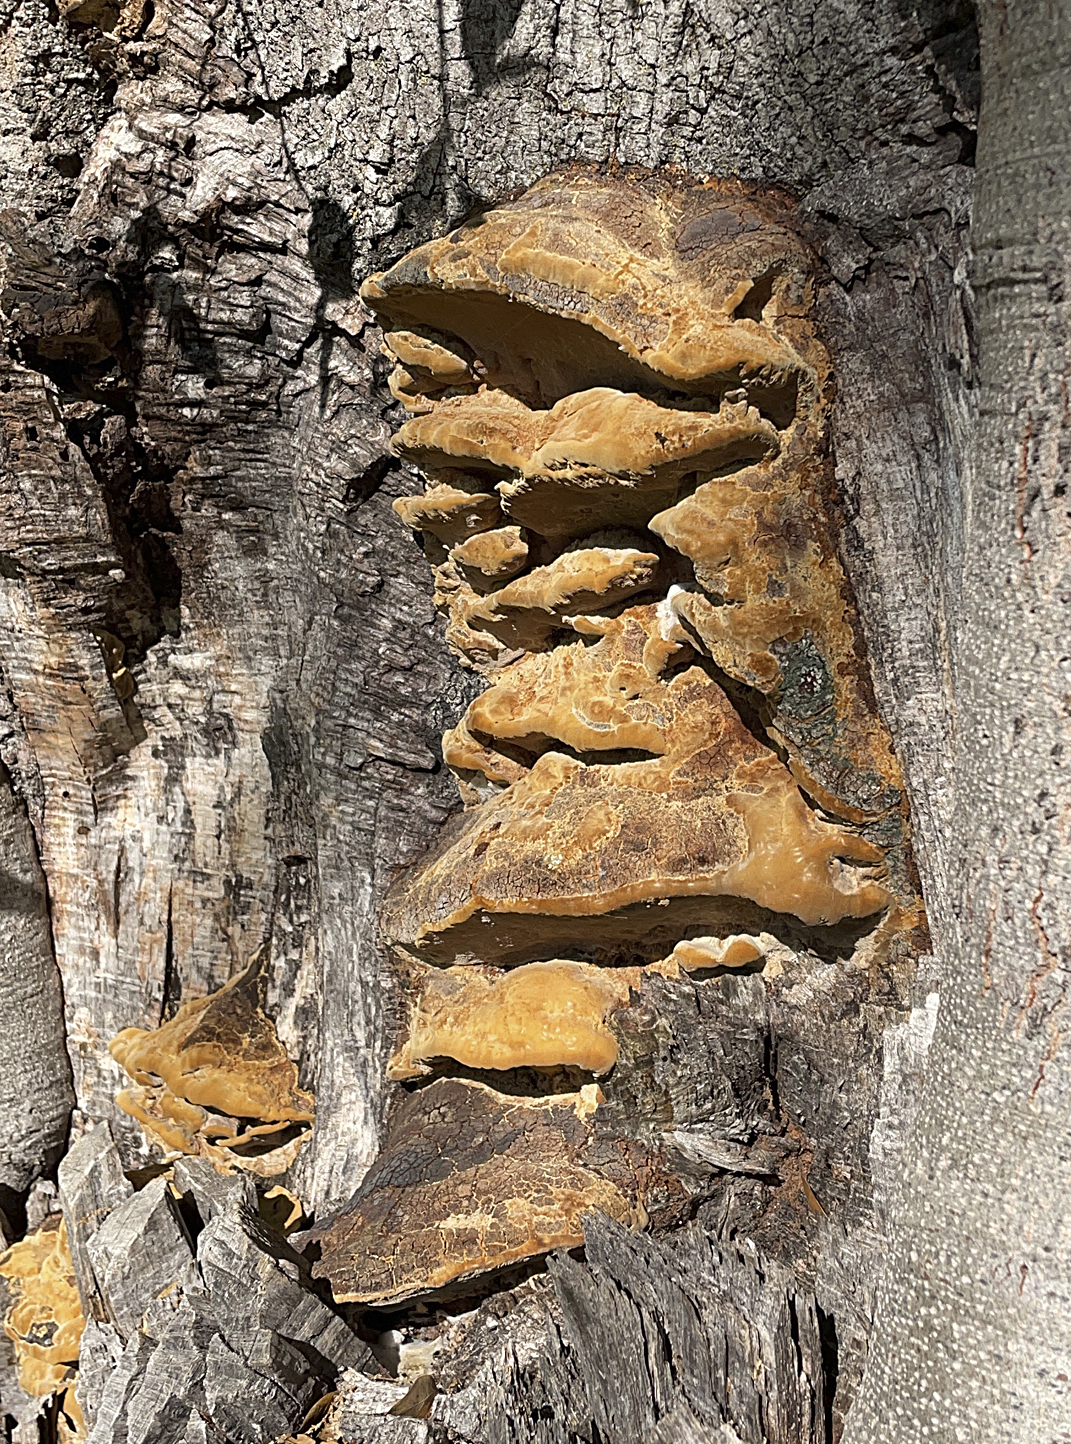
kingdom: Fungi
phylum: Basidiomycota
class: Agaricomycetes
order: Hymenochaetales
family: Hymenochaetaceae
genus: Phellinus
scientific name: Phellinus gilvus
